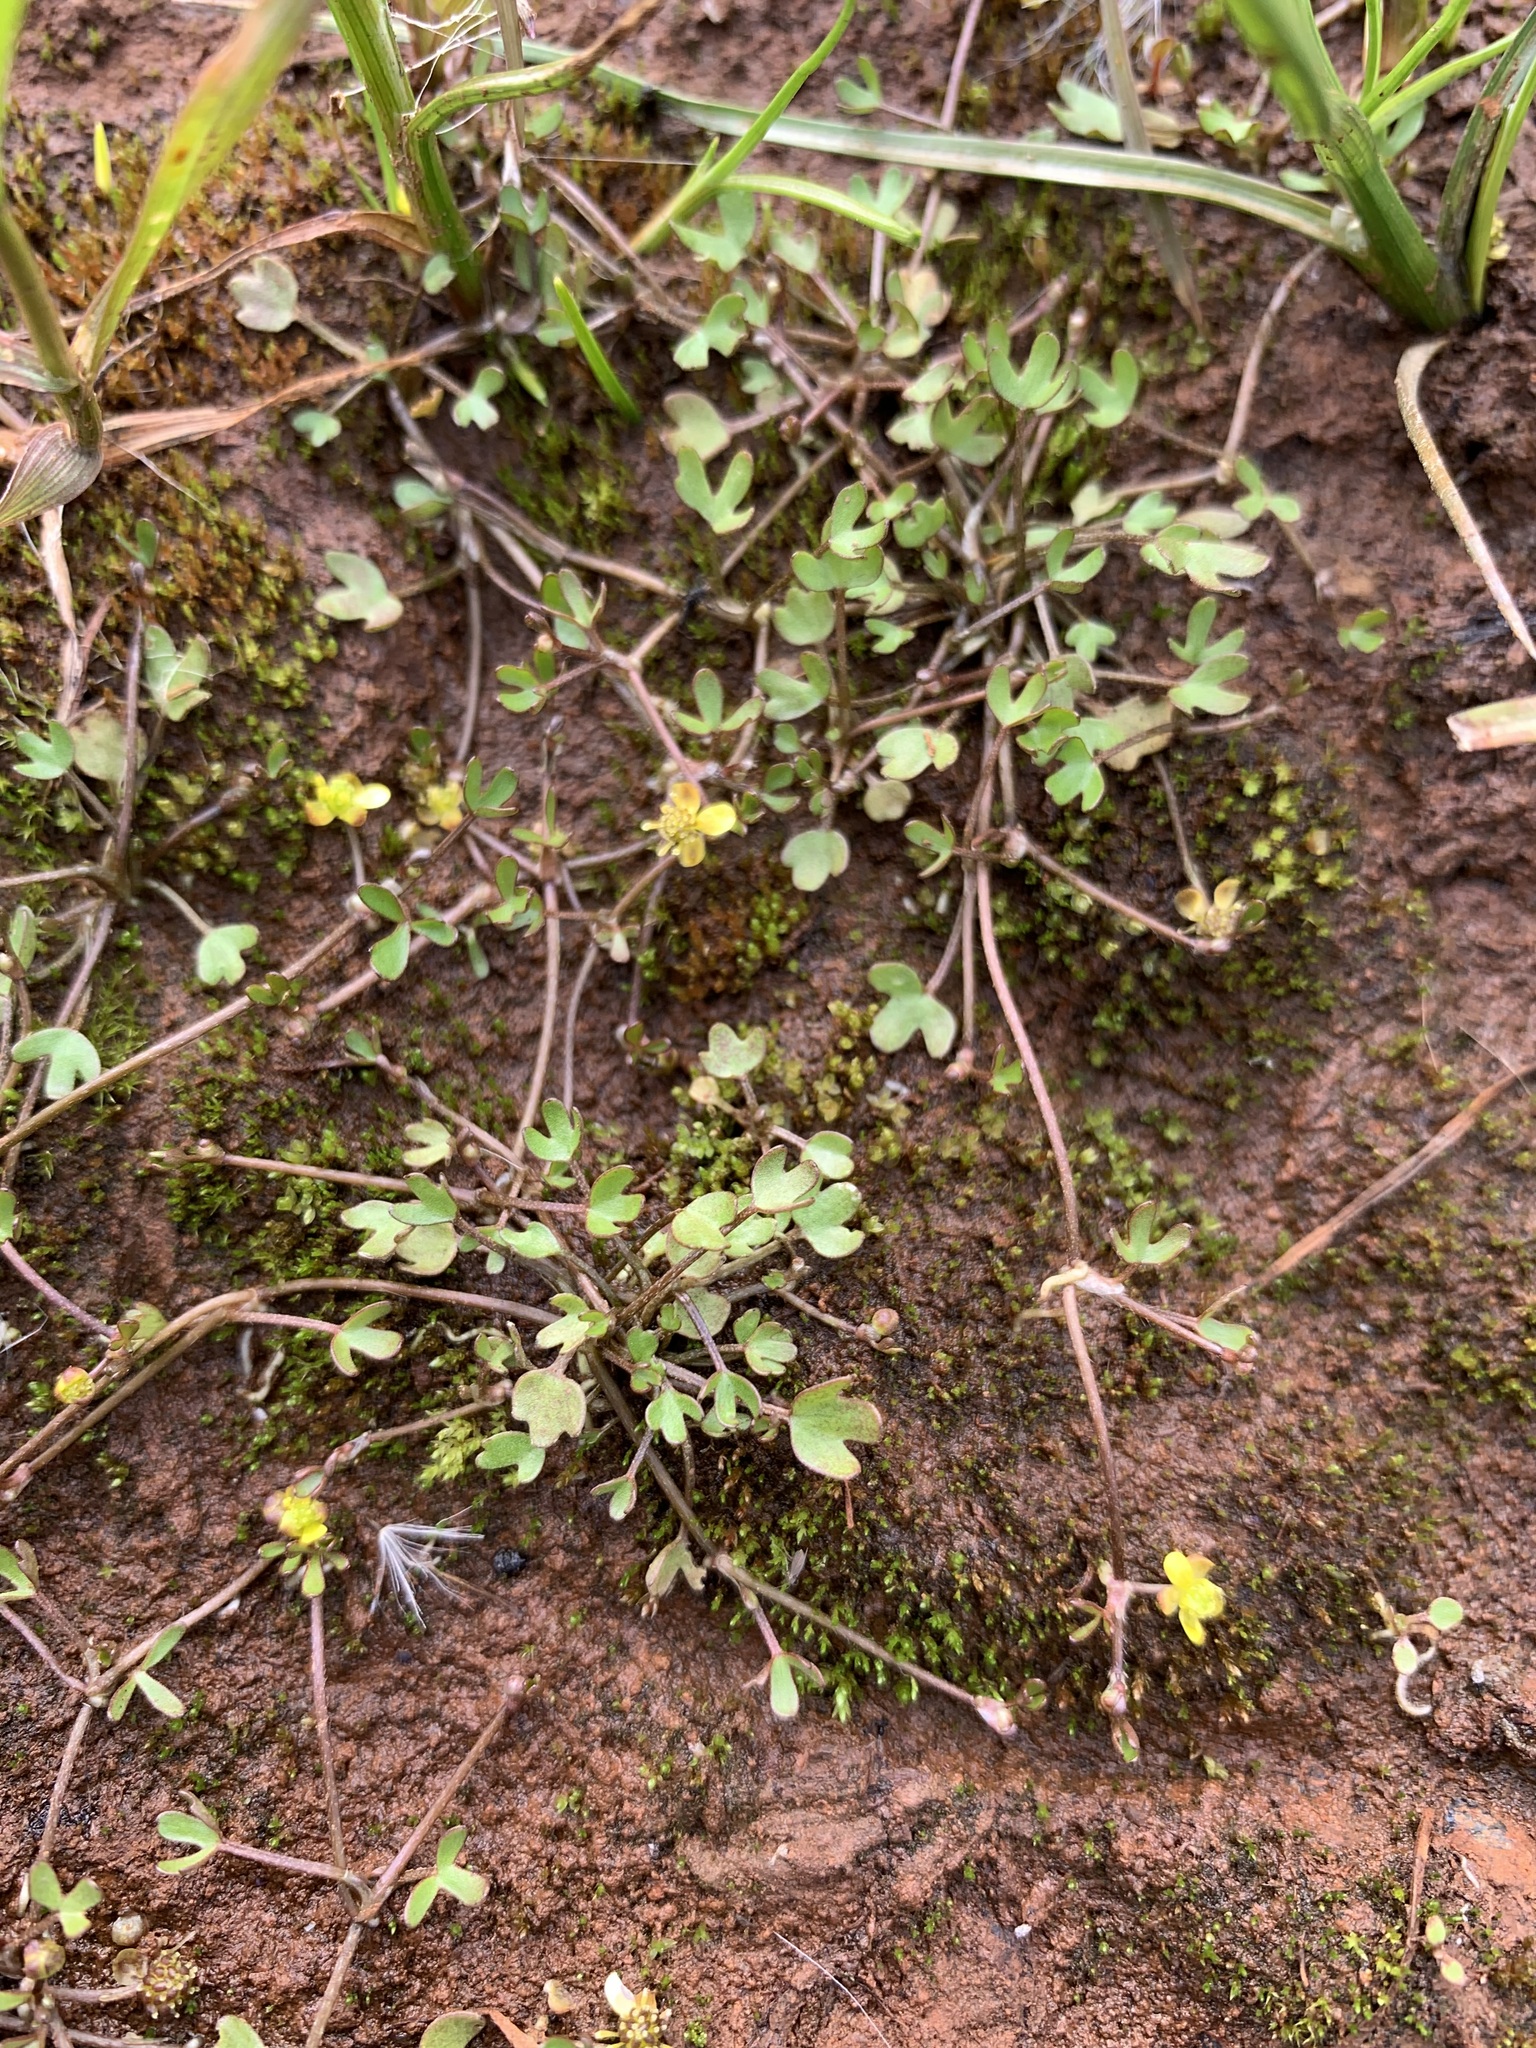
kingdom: Plantae
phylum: Tracheophyta
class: Magnoliopsida
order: Ranunculales
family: Ranunculaceae
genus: Ranunculus
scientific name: Ranunculus hyperboreus
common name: Arctic buttercup
